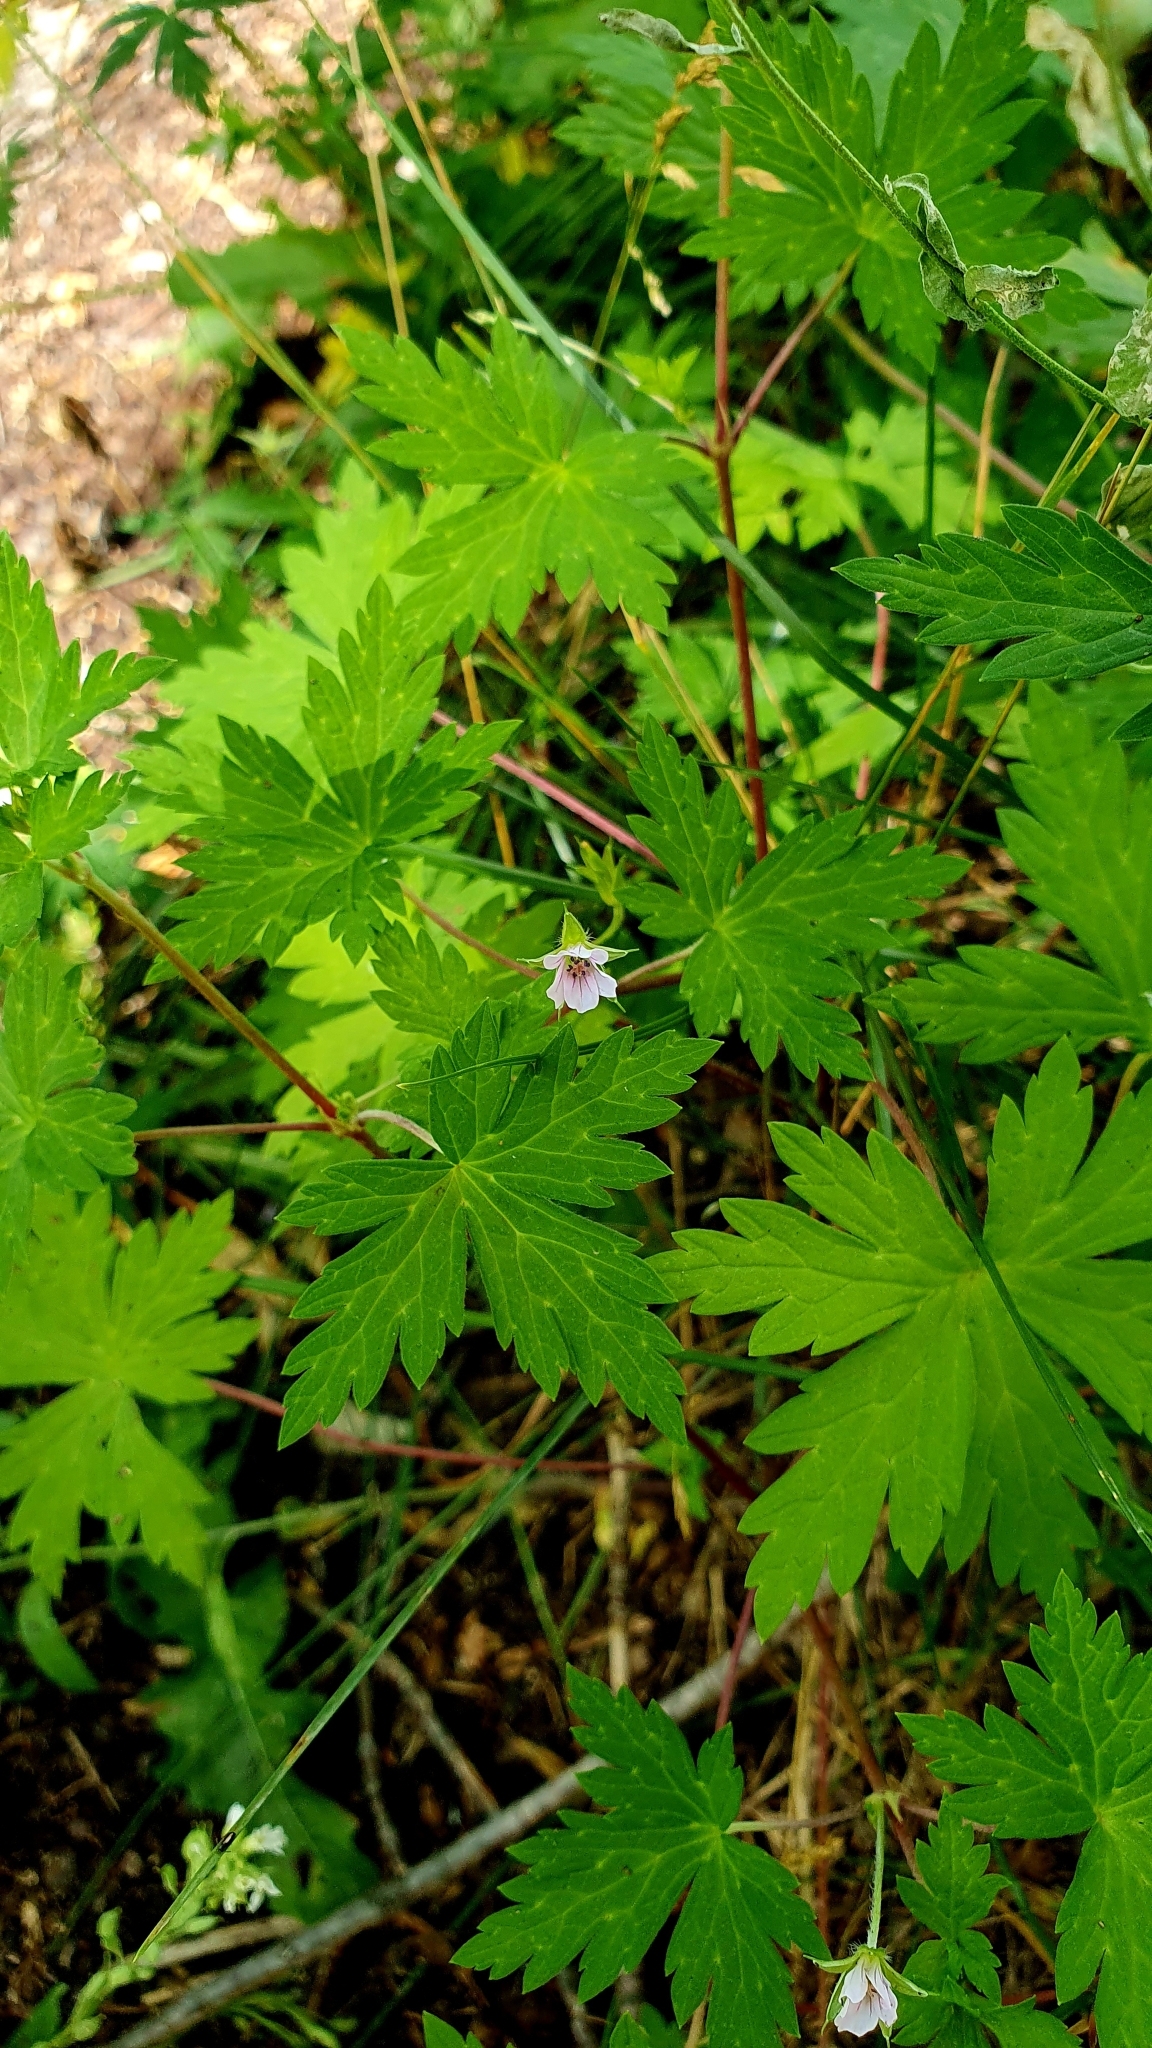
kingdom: Plantae
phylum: Tracheophyta
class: Magnoliopsida
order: Geraniales
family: Geraniaceae
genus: Geranium
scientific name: Geranium sibiricum
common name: Siberian crane's-bill
